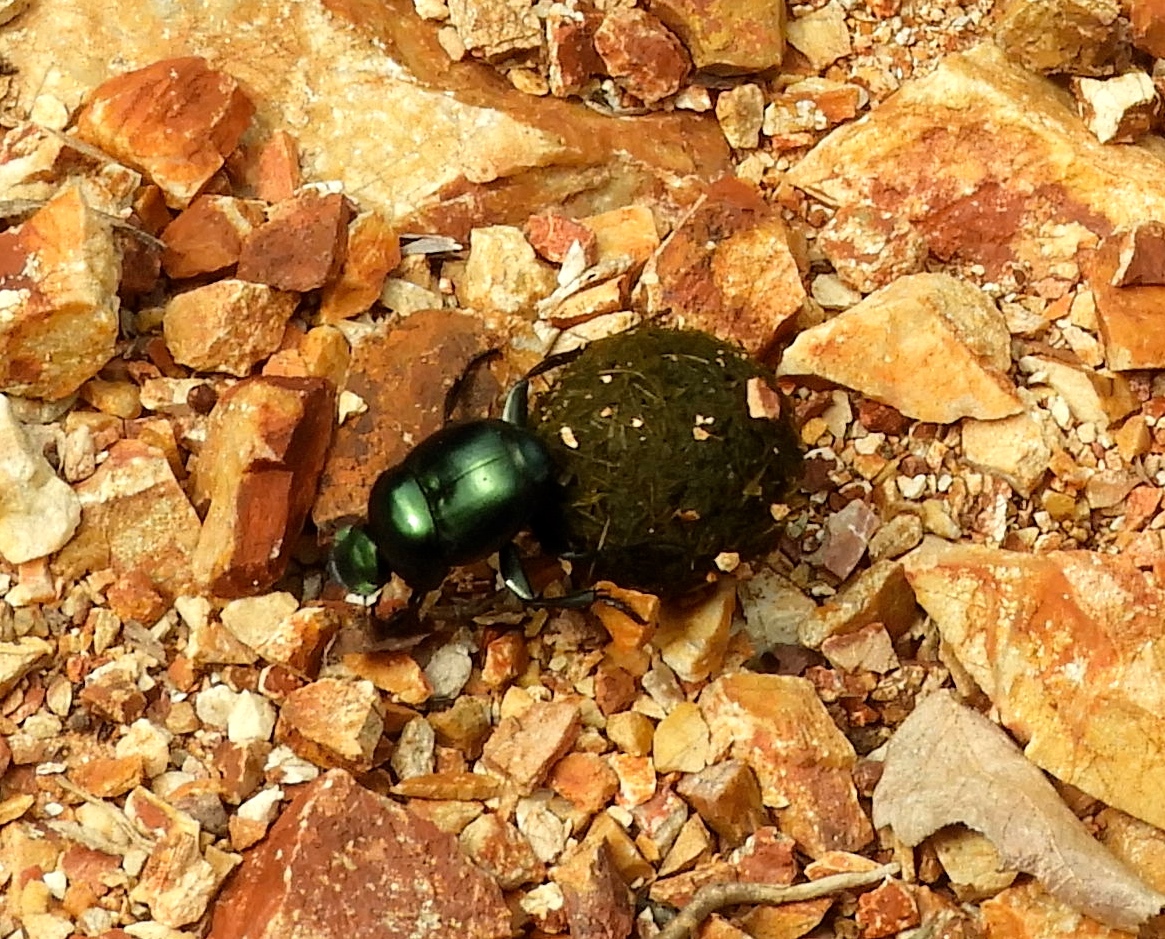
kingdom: Animalia
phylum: Arthropoda
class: Insecta
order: Coleoptera
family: Scarabaeidae
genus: Canthon
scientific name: Canthon
